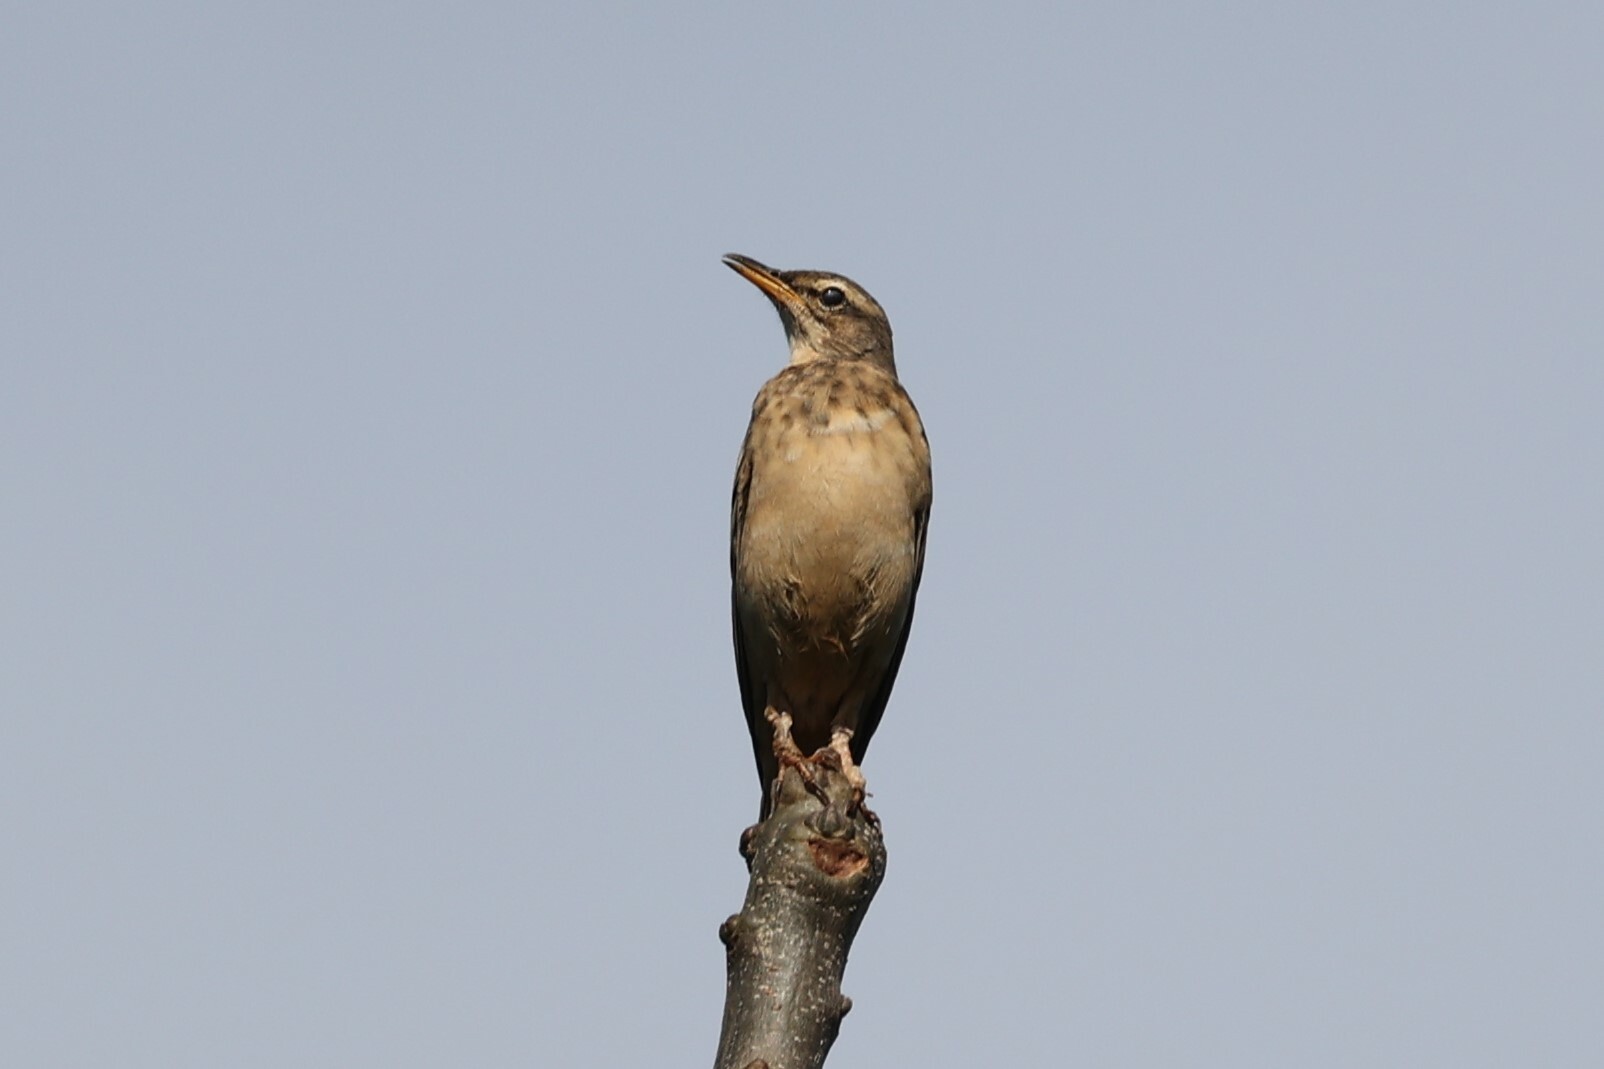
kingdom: Animalia
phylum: Chordata
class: Aves
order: Passeriformes
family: Motacillidae
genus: Anthus
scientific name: Anthus leucophrys
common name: Plain-backed pipit
